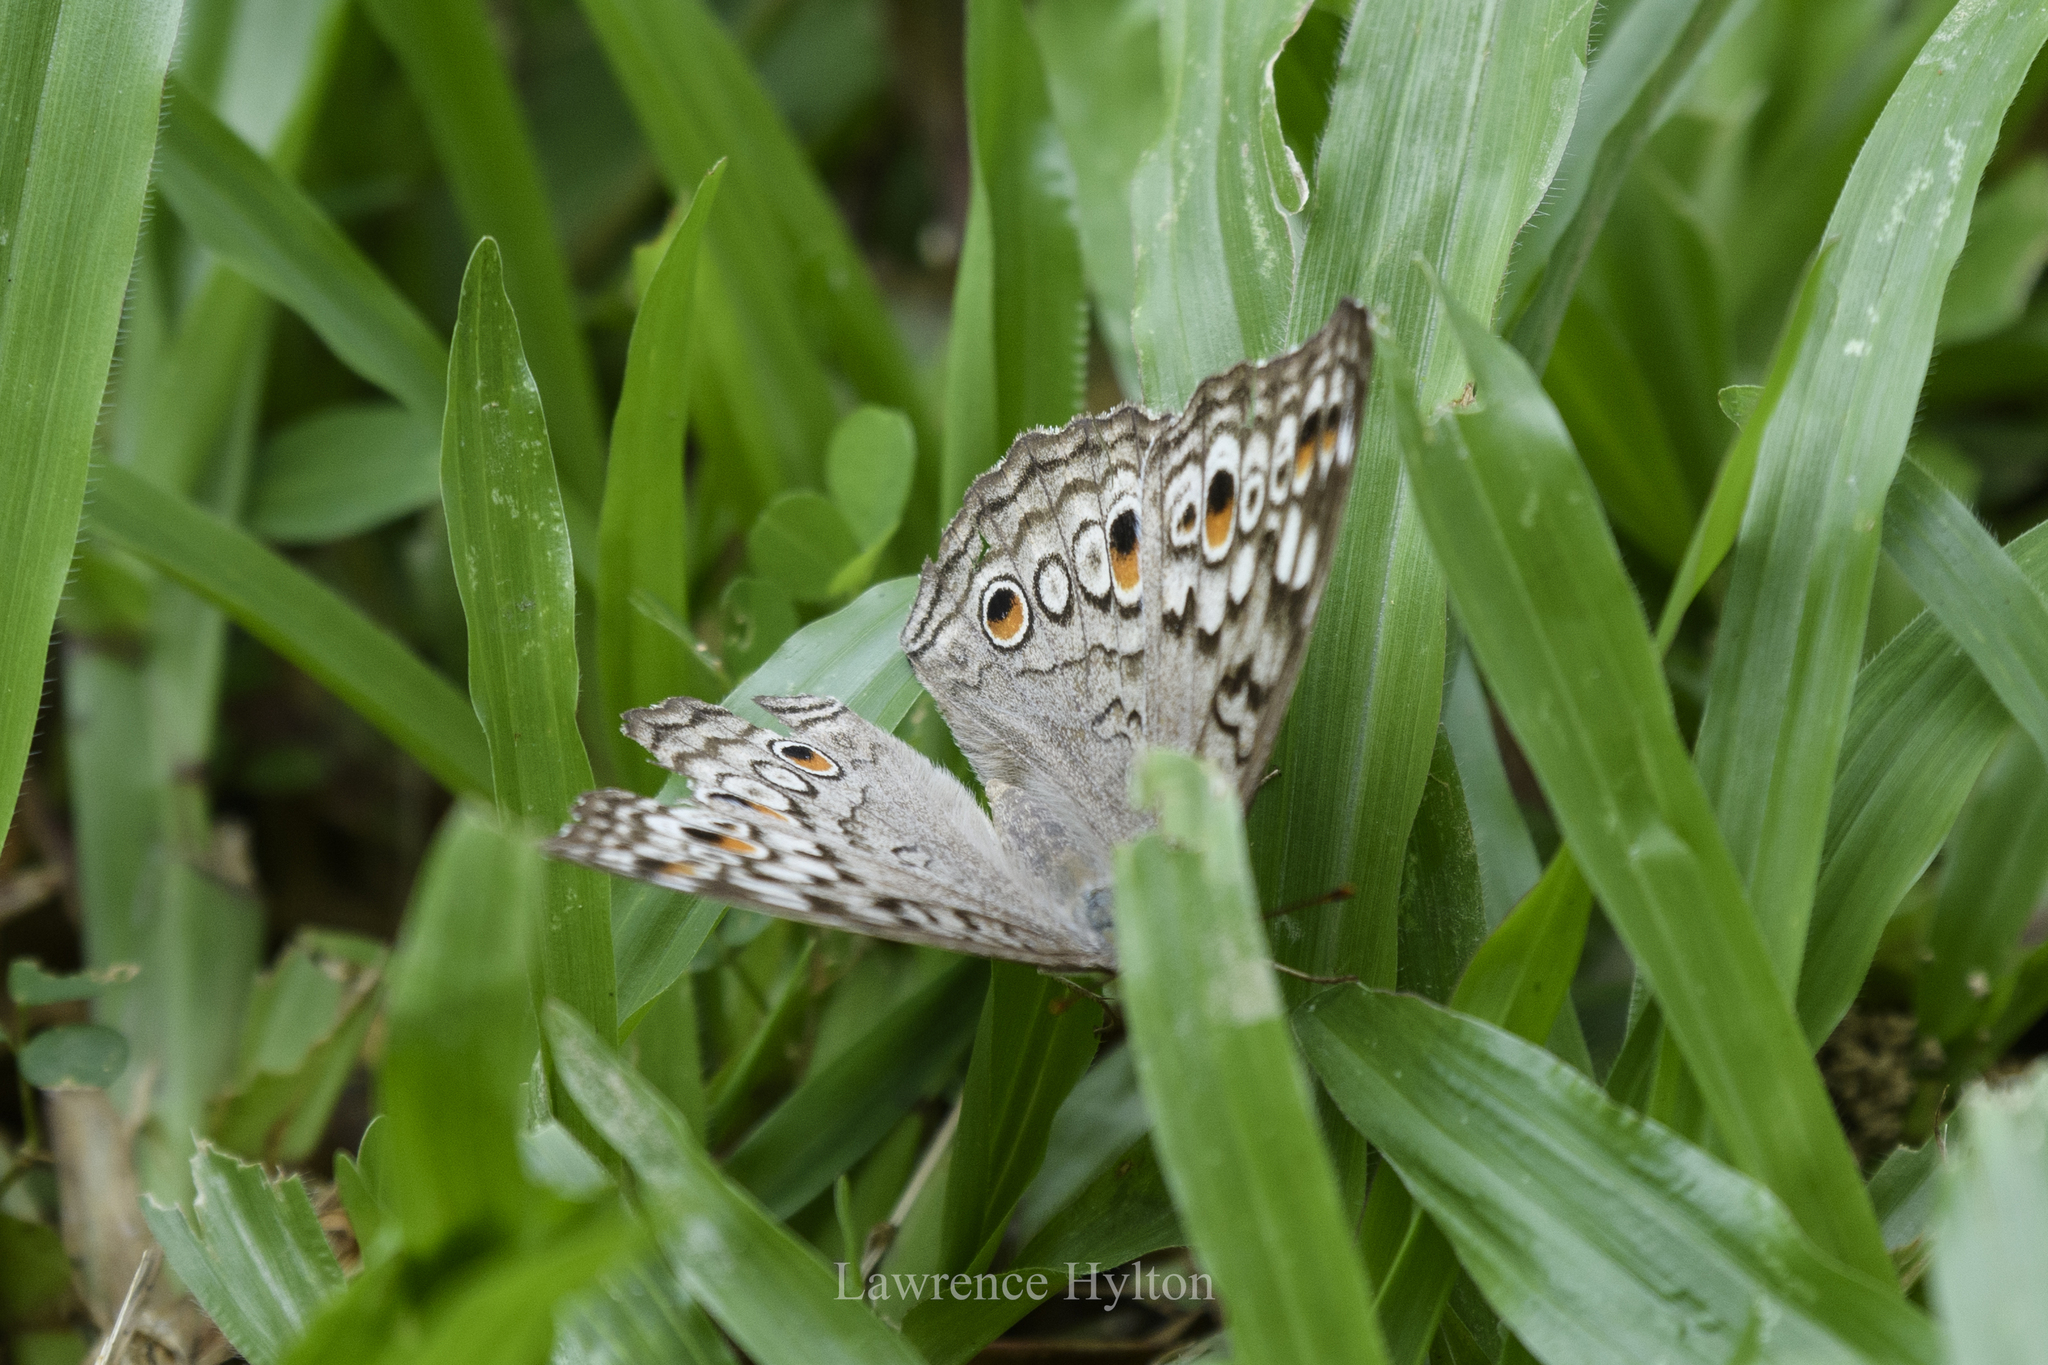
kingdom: Animalia
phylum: Arthropoda
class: Insecta
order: Lepidoptera
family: Nymphalidae
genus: Junonia
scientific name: Junonia atlites
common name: Grey pansy
